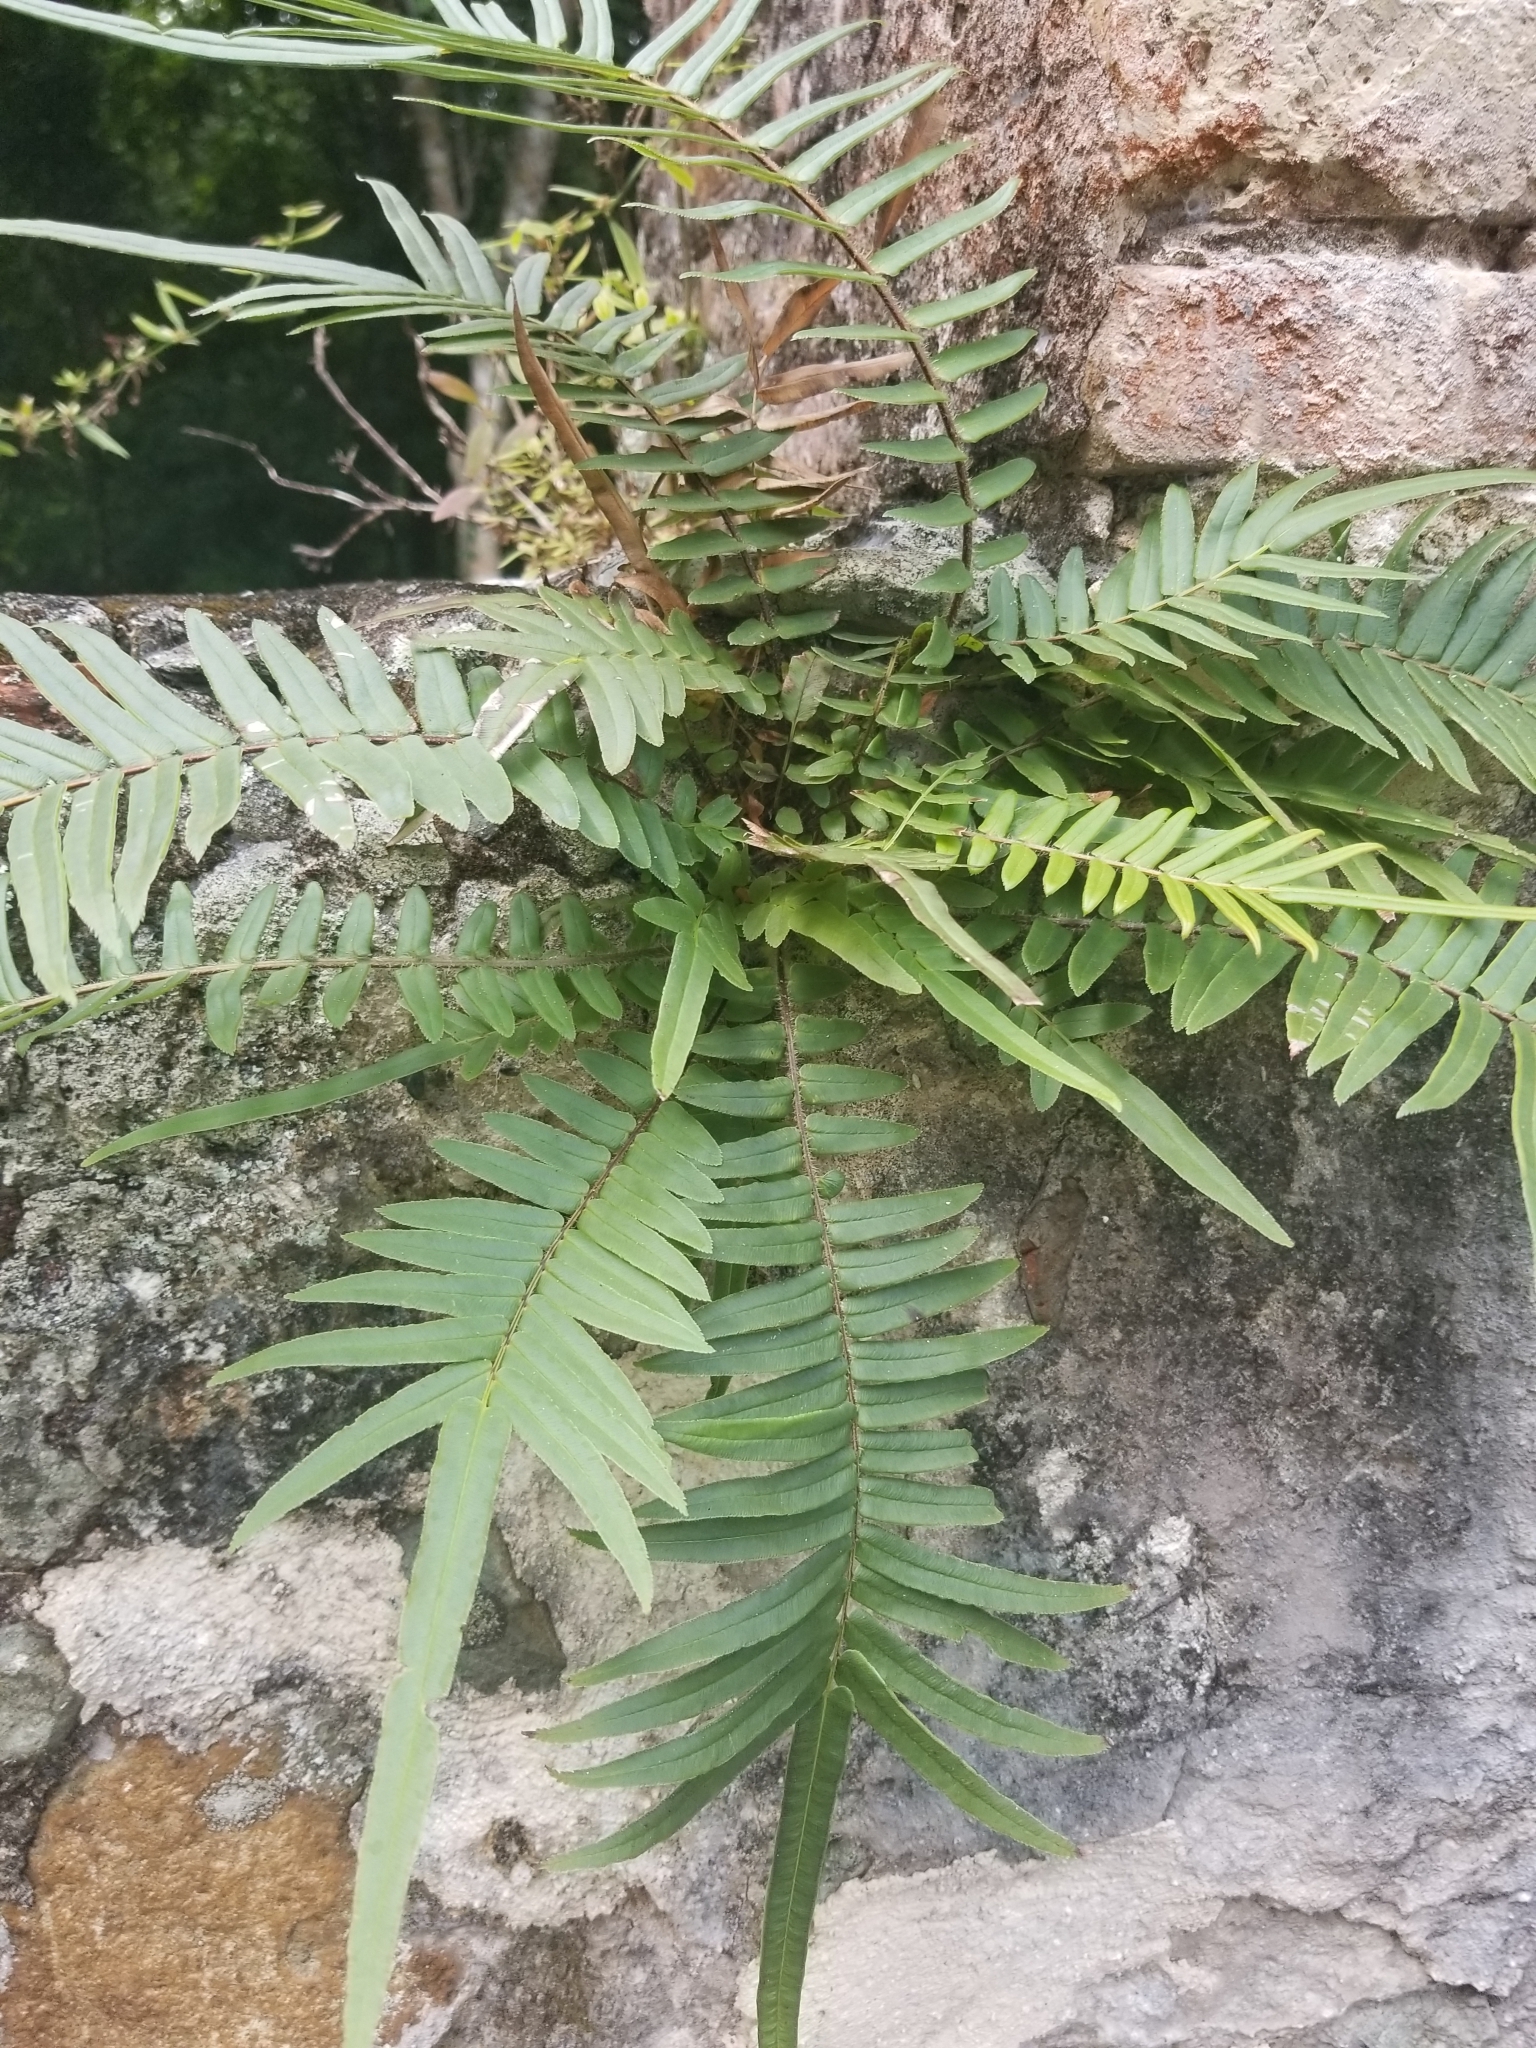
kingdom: Plantae
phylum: Tracheophyta
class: Polypodiopsida
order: Polypodiales
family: Pteridaceae
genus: Pteris
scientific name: Pteris vittata
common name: Ladder brake
